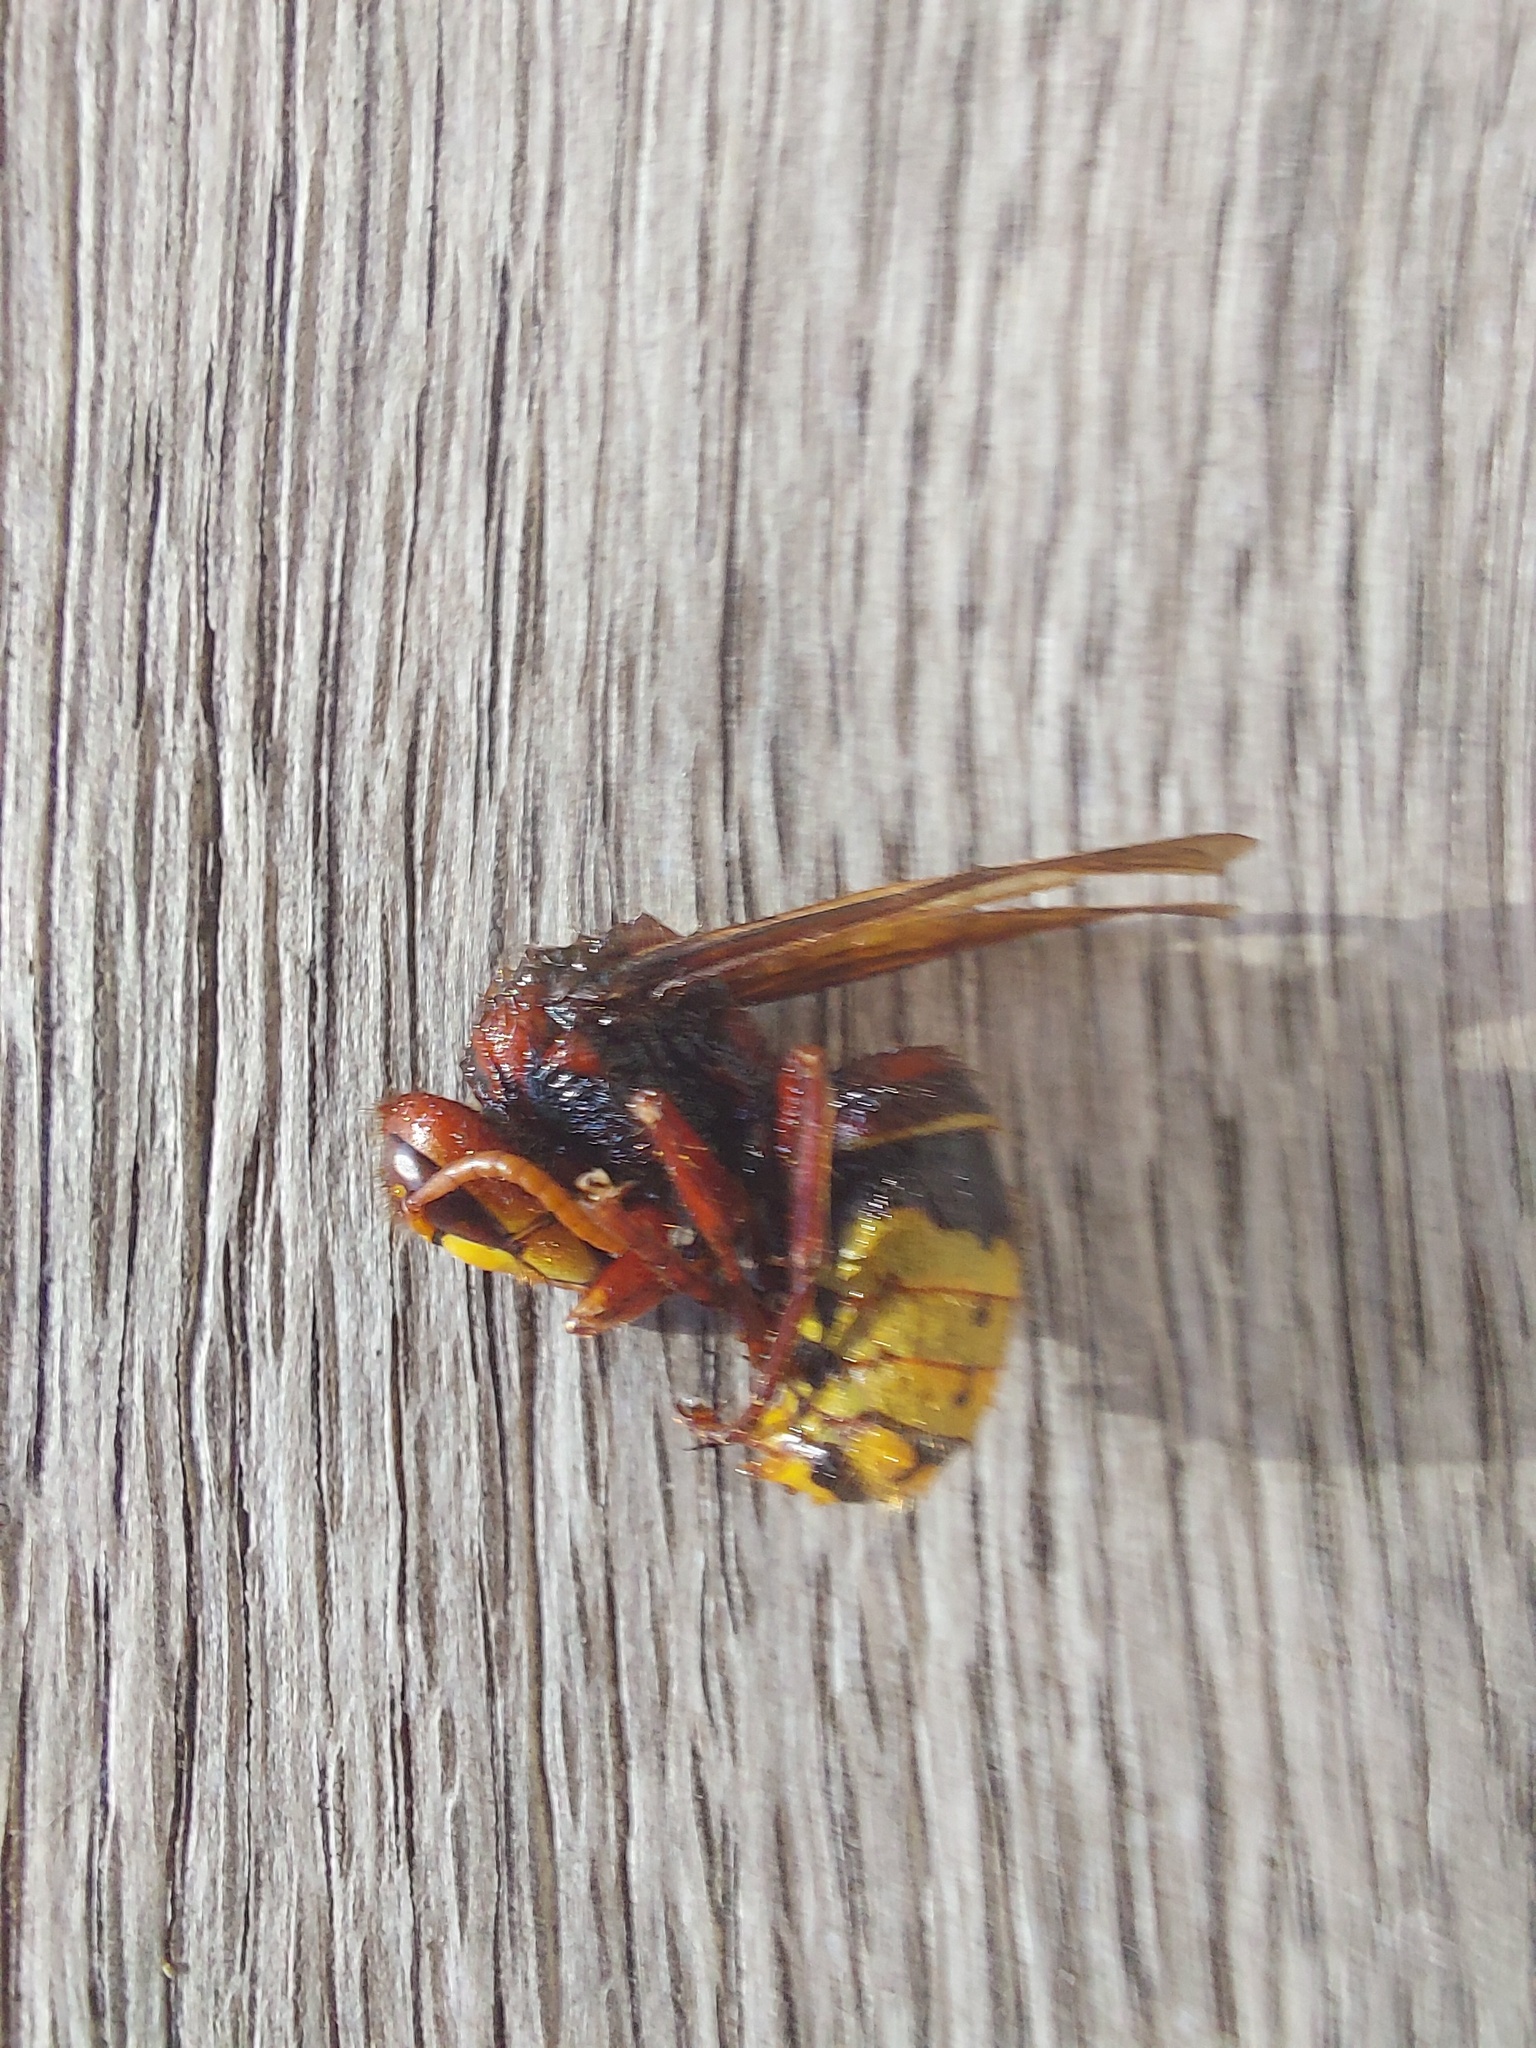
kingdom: Animalia
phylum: Arthropoda
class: Insecta
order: Hymenoptera
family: Vespidae
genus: Vespa
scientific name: Vespa crabro
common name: Hornet
